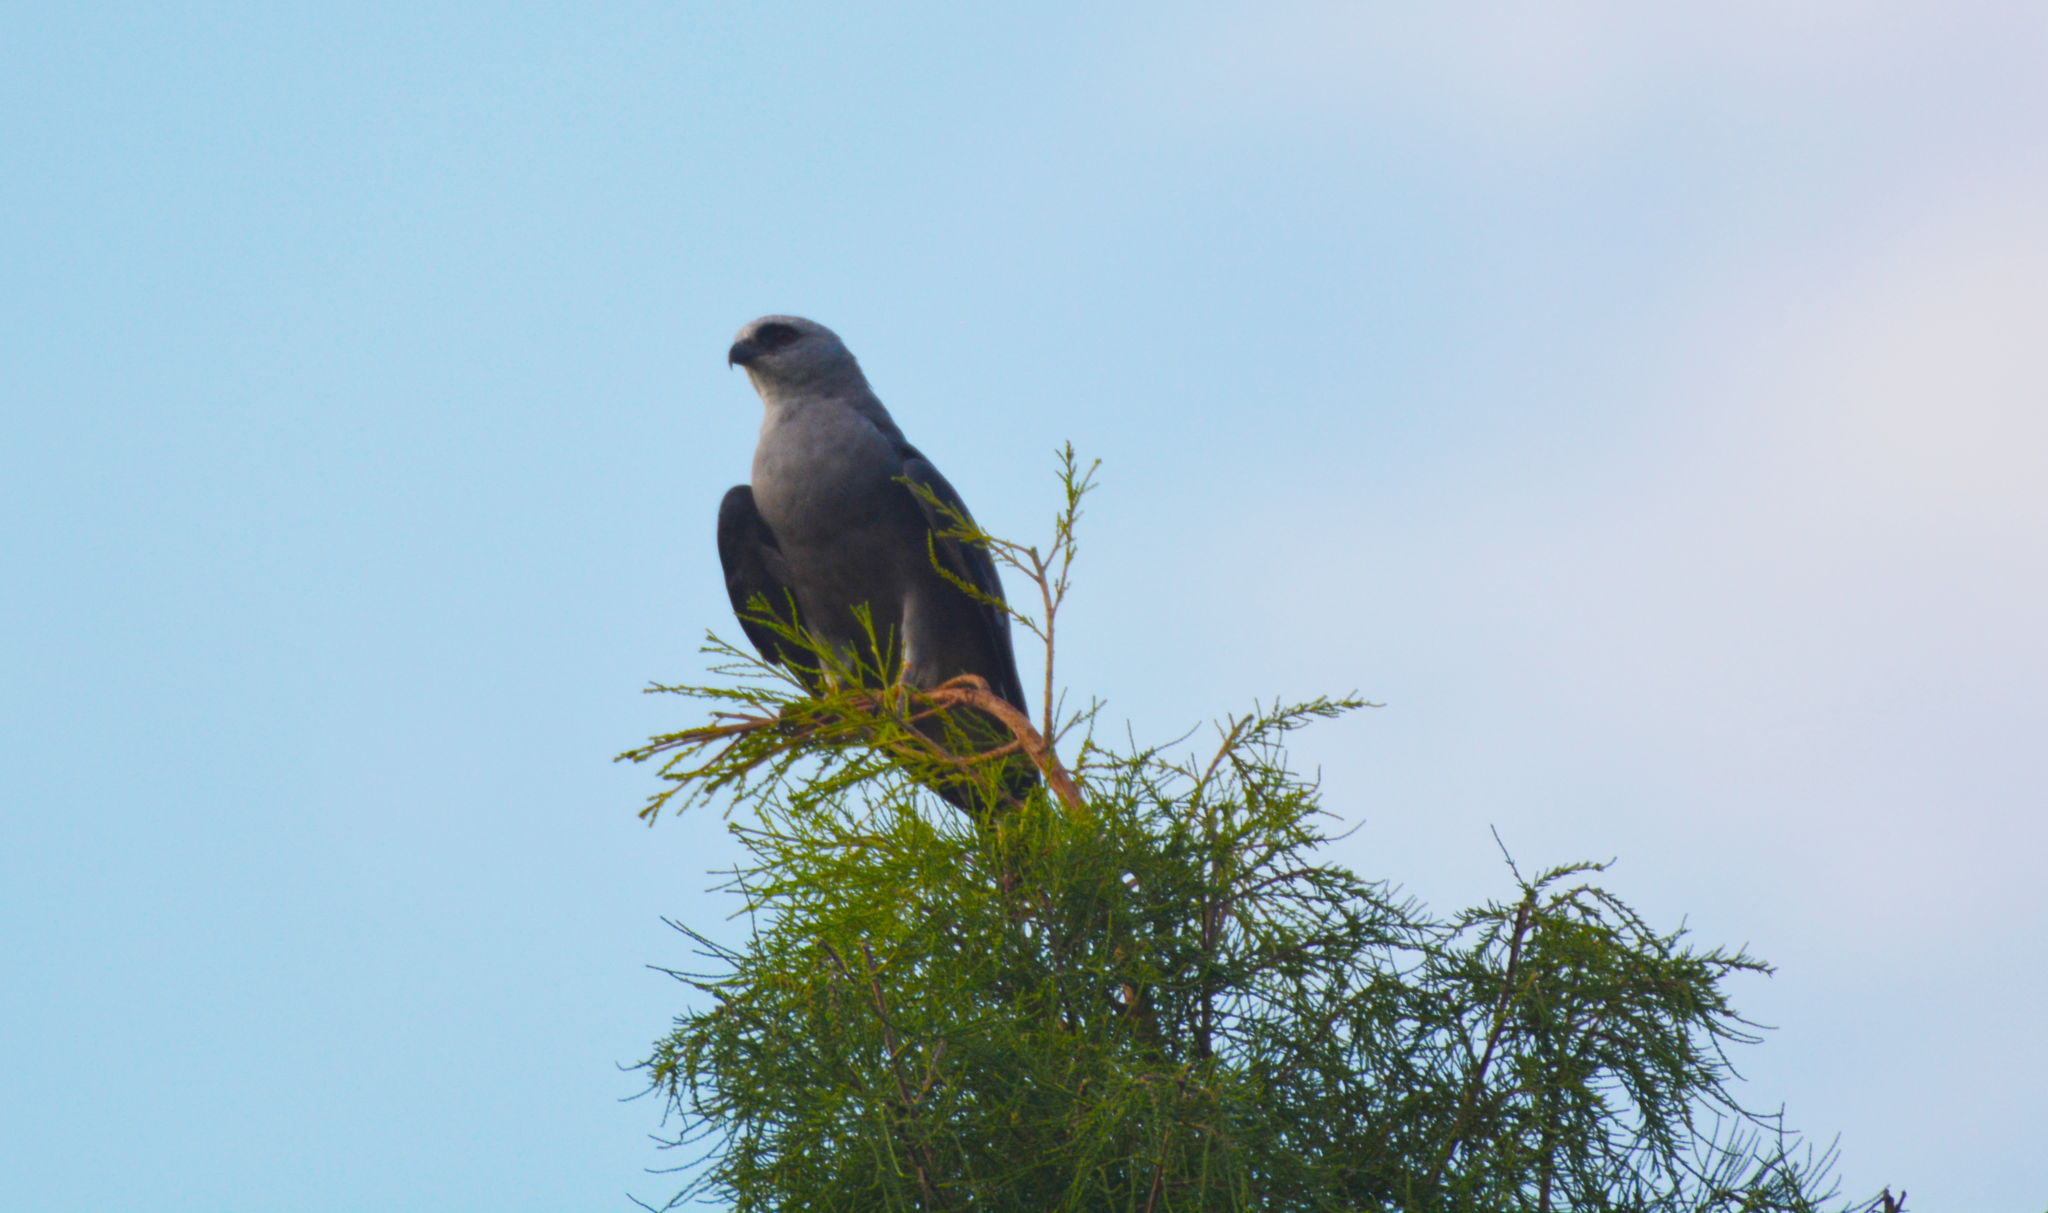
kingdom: Animalia
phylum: Chordata
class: Aves
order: Accipitriformes
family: Accipitridae
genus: Ictinia
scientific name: Ictinia mississippiensis
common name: Mississippi kite
